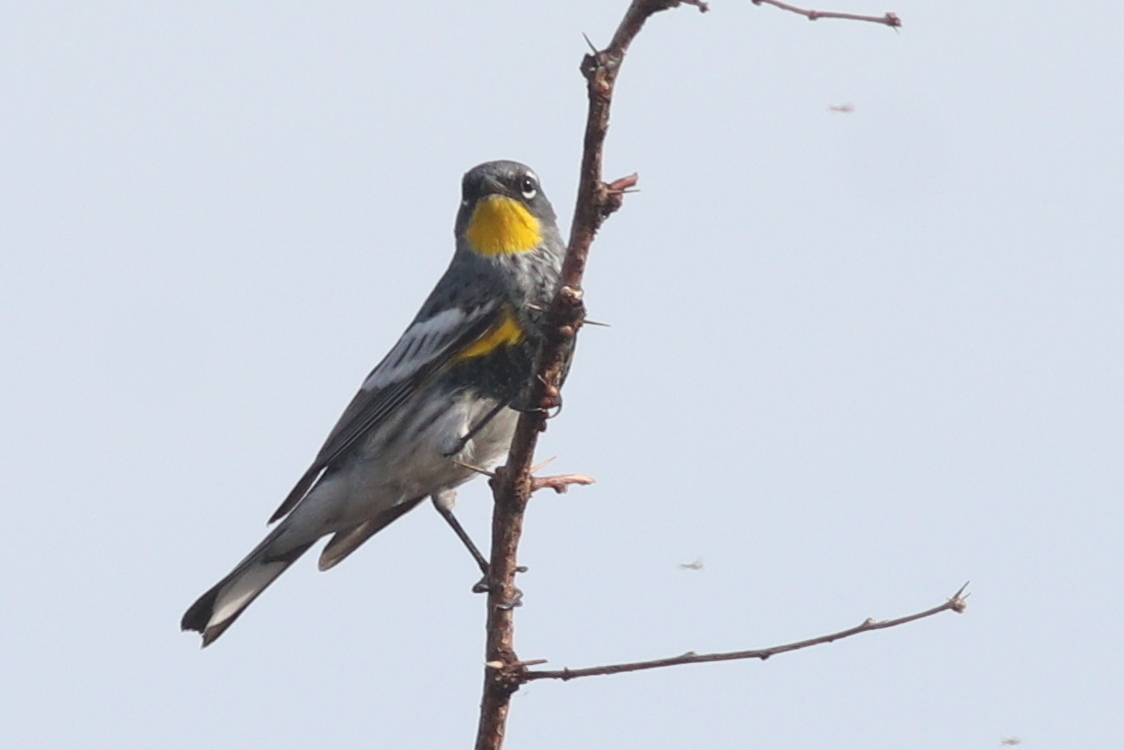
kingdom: Animalia
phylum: Chordata
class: Aves
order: Passeriformes
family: Parulidae
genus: Setophaga
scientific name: Setophaga auduboni
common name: Audubon's warbler
